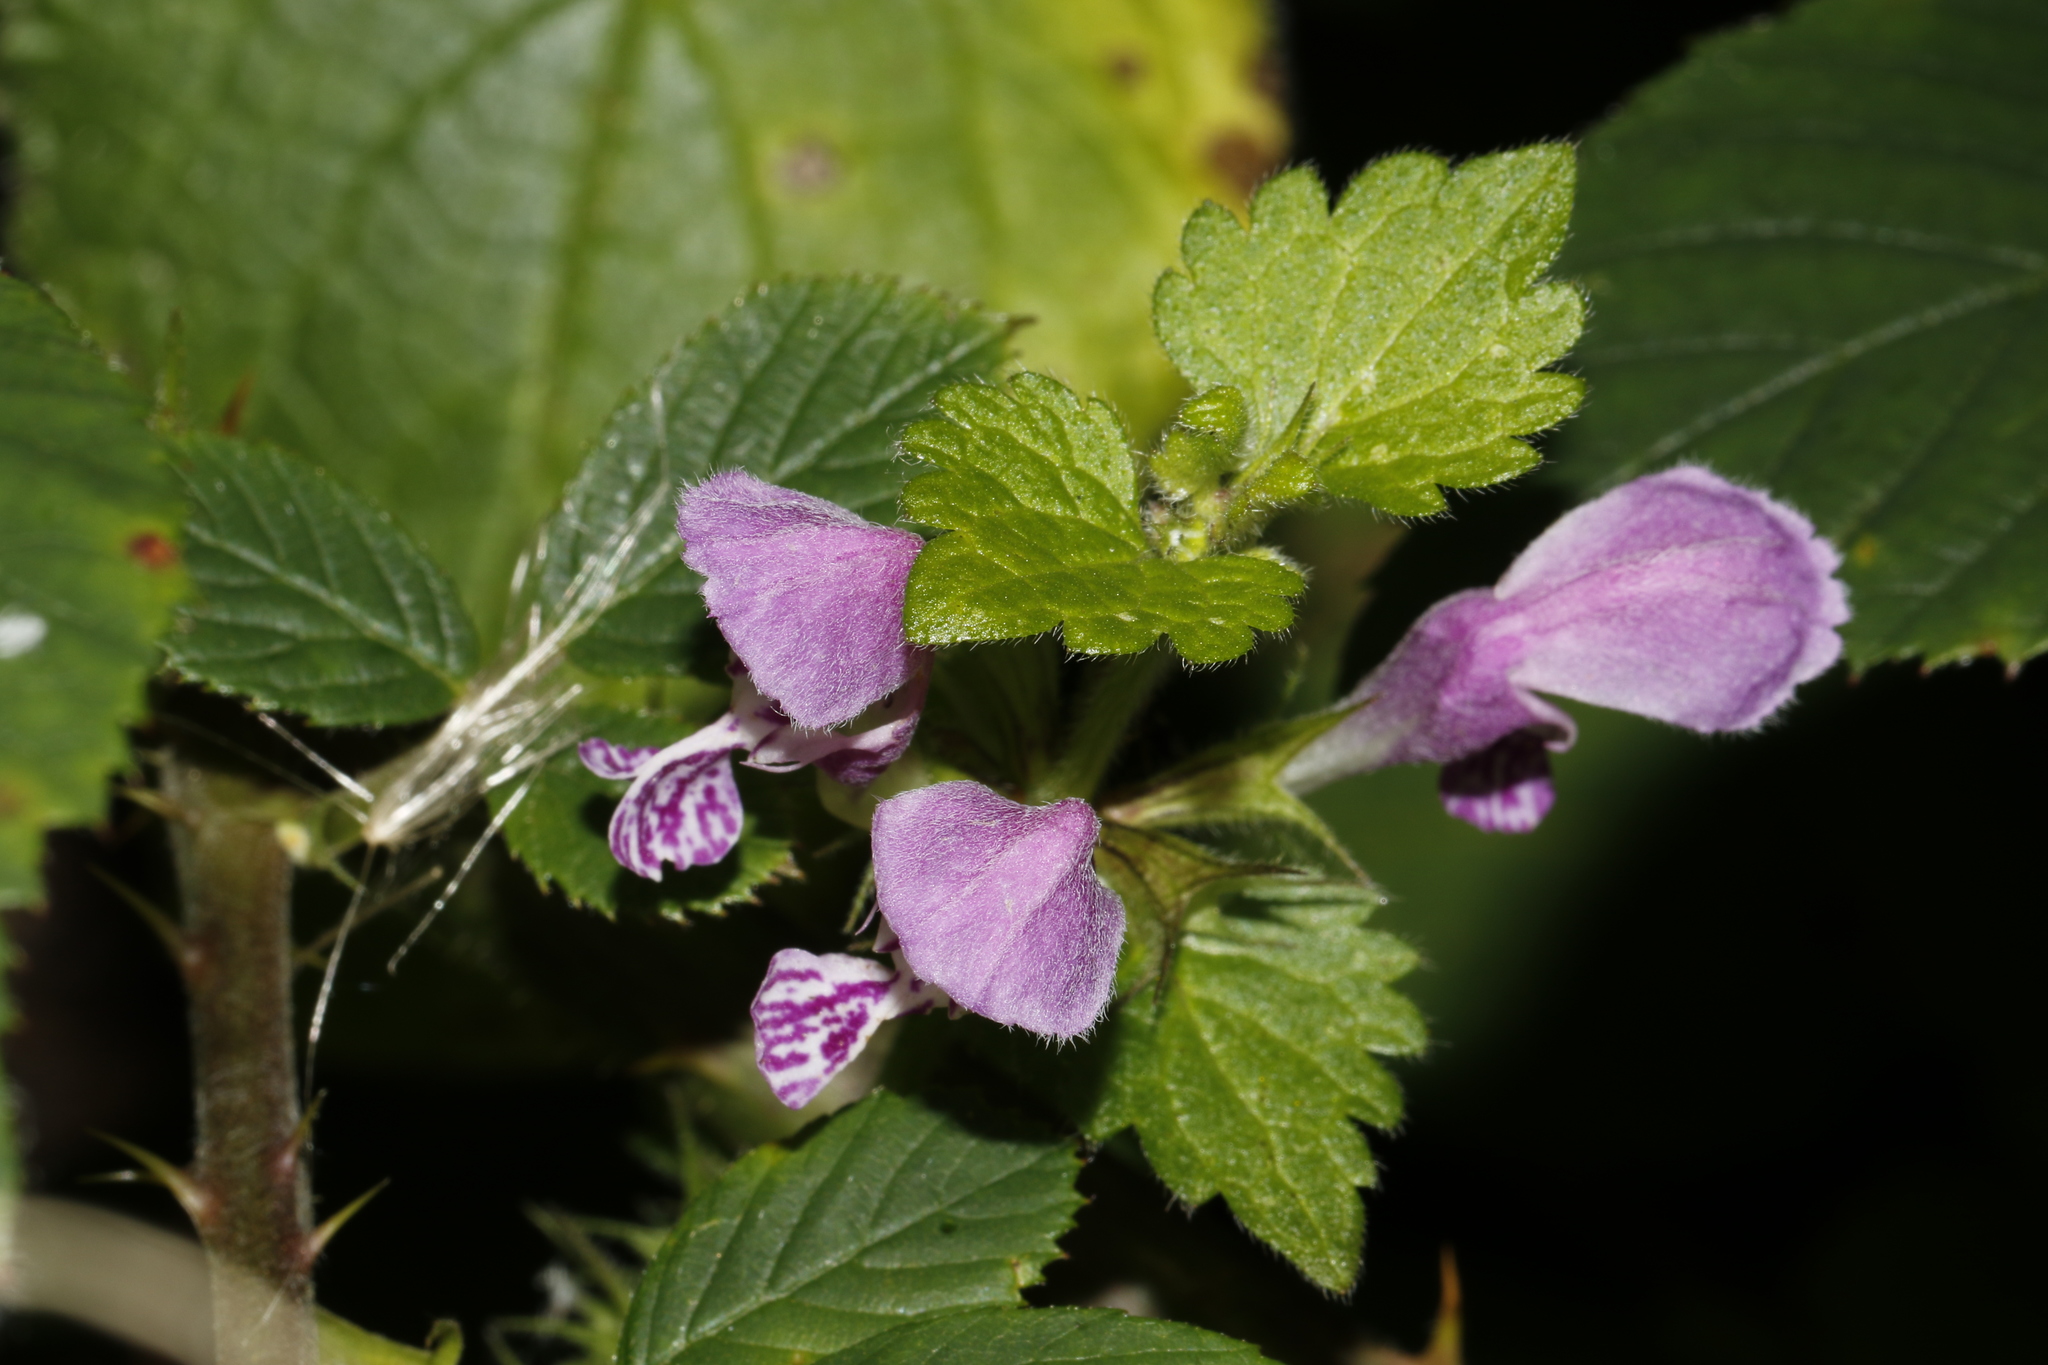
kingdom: Plantae
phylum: Tracheophyta
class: Magnoliopsida
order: Lamiales
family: Lamiaceae
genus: Lamium
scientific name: Lamium maculatum
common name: Spotted dead-nettle
